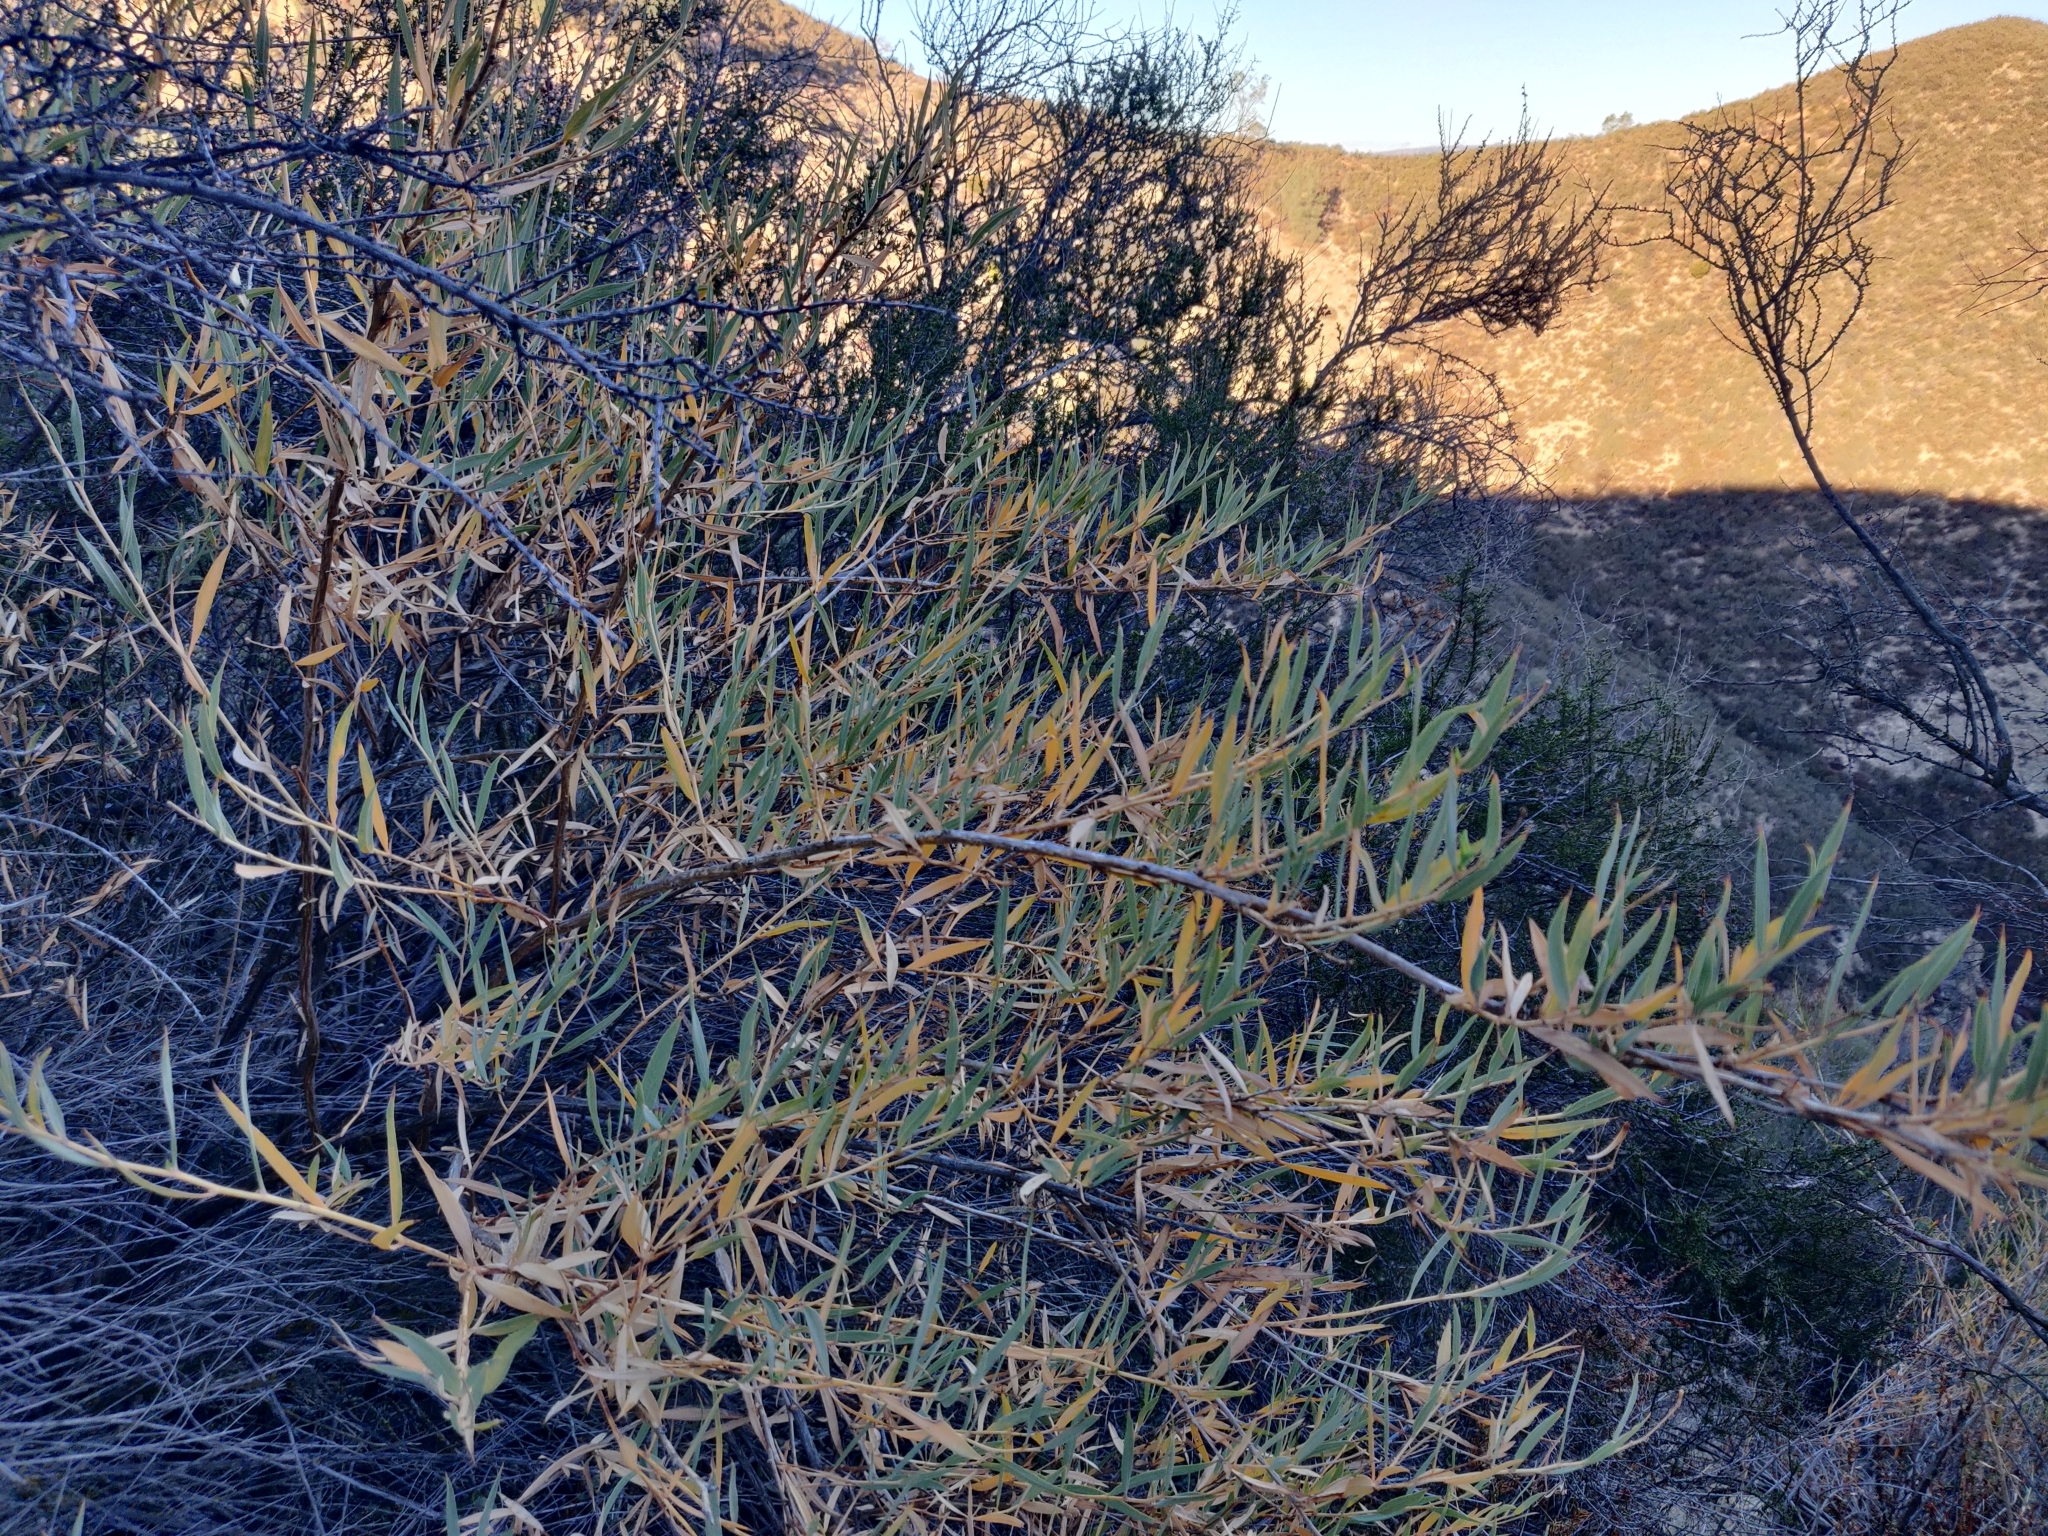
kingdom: Plantae
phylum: Tracheophyta
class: Magnoliopsida
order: Ranunculales
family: Papaveraceae
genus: Dendromecon
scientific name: Dendromecon rigida
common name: Tree poppy
